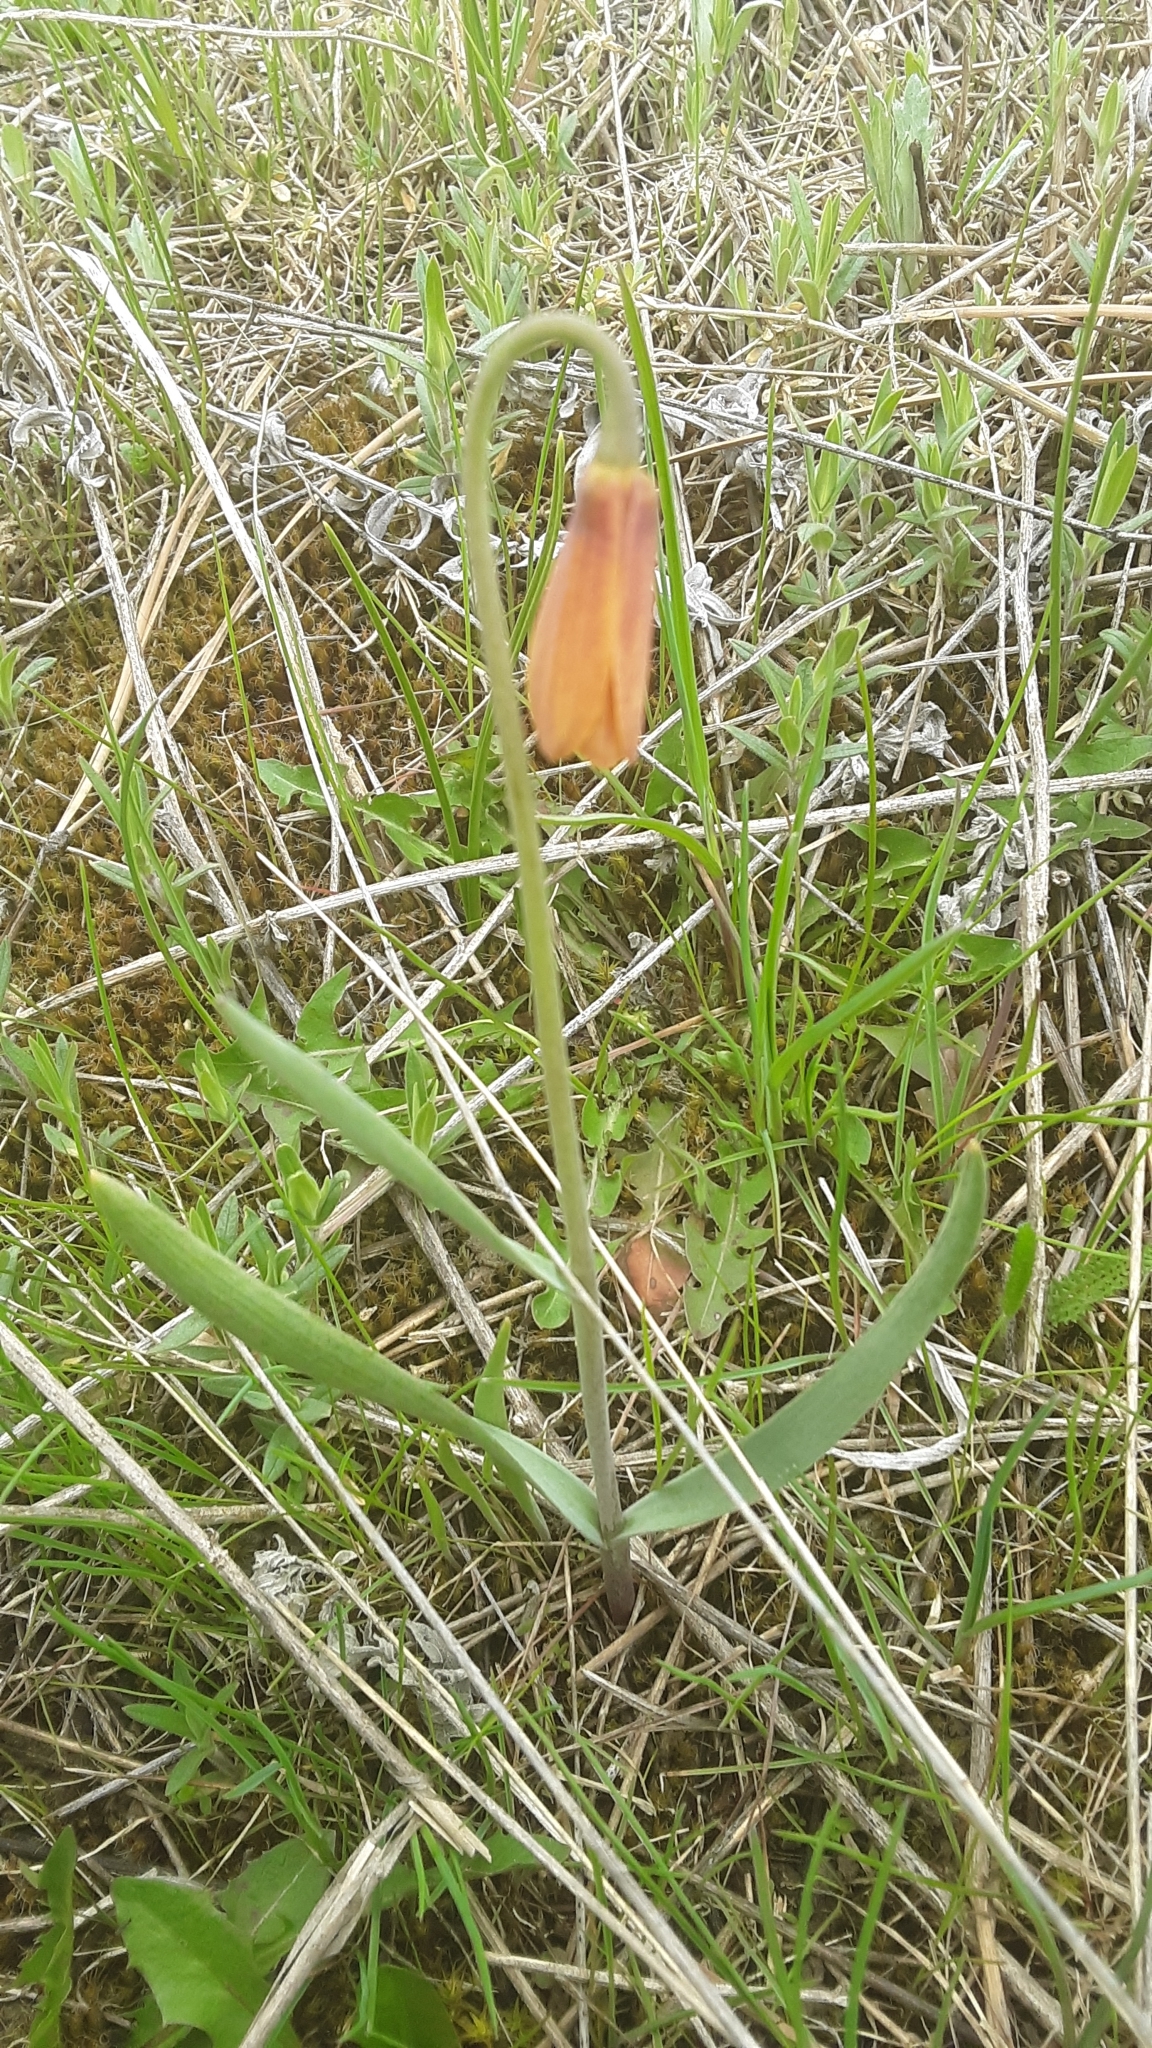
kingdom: Plantae
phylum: Tracheophyta
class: Liliopsida
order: Liliales
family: Liliaceae
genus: Fritillaria
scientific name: Fritillaria pudica
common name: Yellow fritillary
